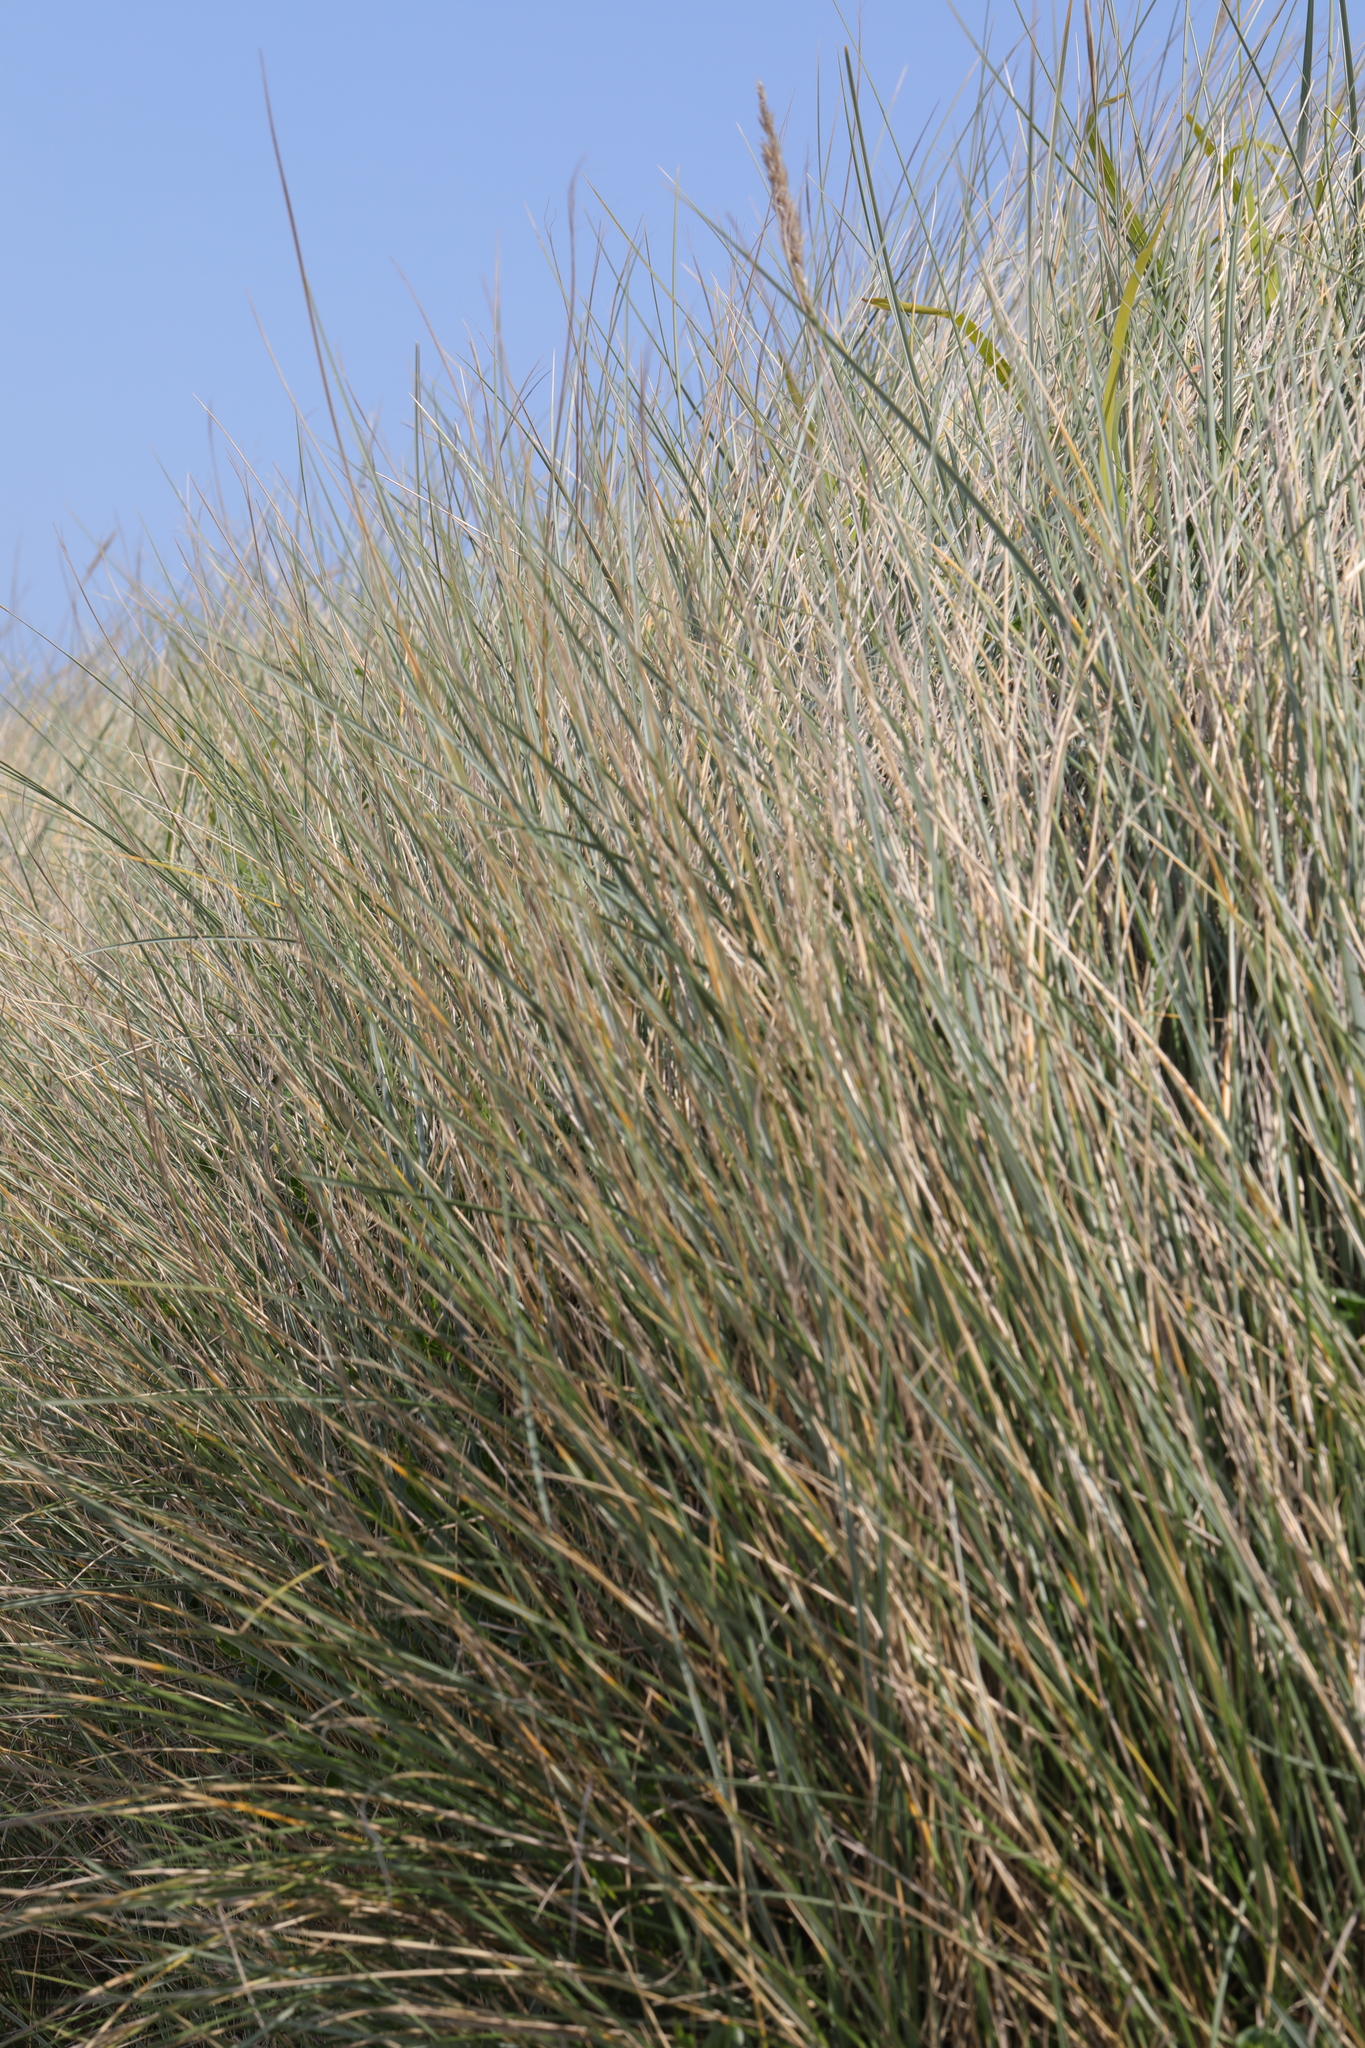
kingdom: Plantae
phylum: Tracheophyta
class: Liliopsida
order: Poales
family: Poaceae
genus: Calamagrostis
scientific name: Calamagrostis arenaria
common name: European beachgrass
